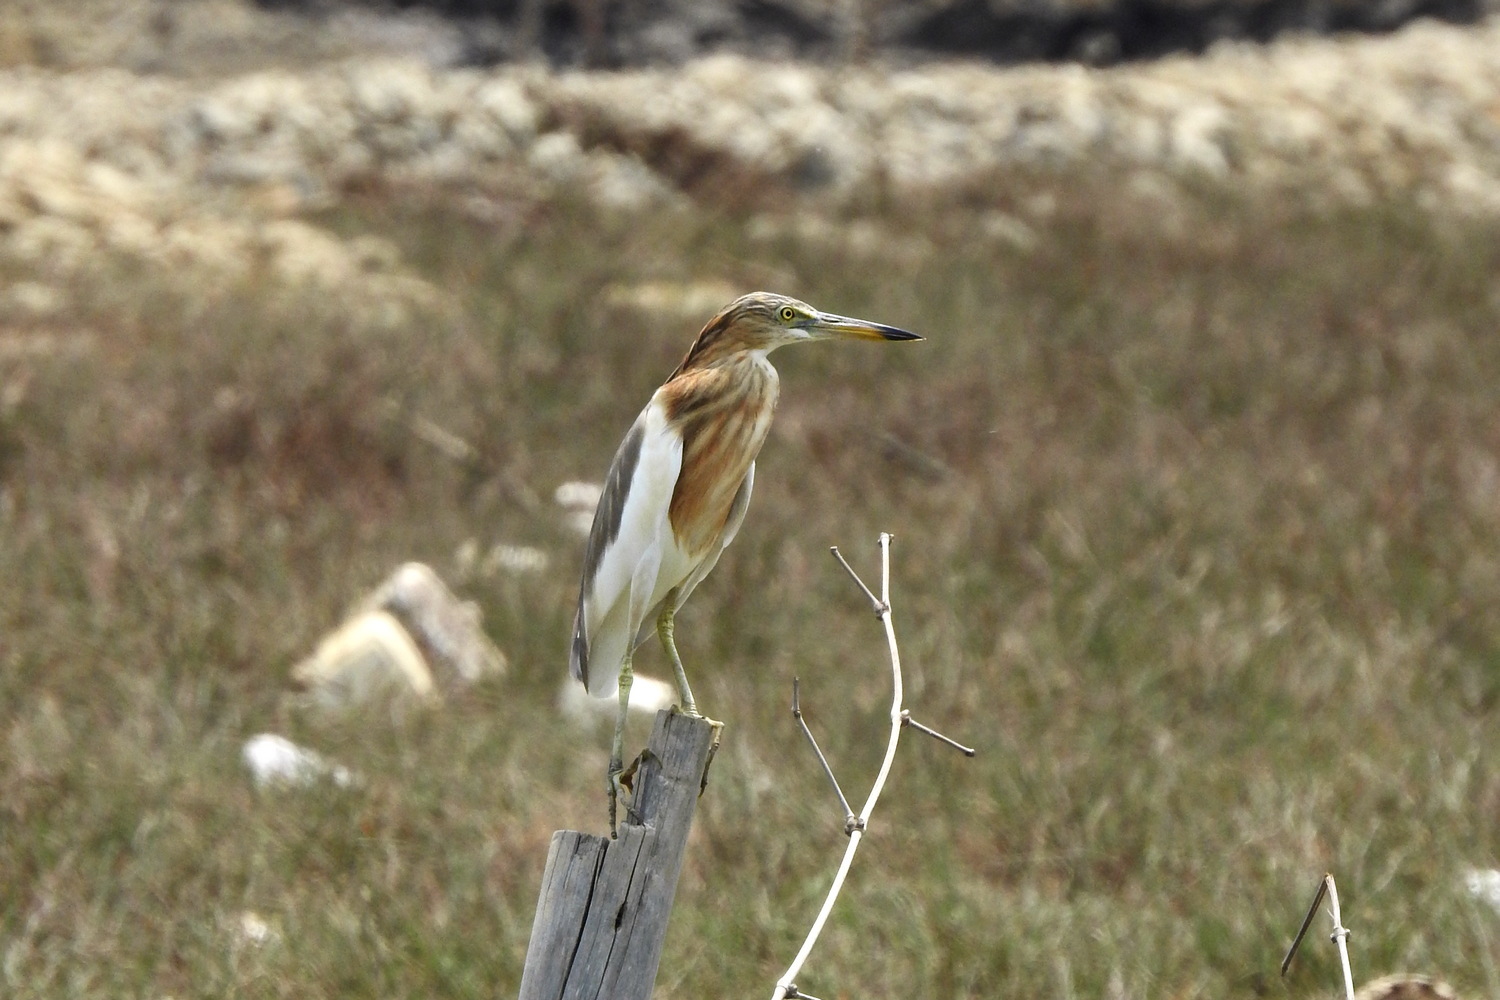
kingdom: Animalia
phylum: Chordata
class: Aves
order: Pelecaniformes
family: Ardeidae
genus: Ardeola
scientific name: Ardeola speciosa
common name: Javan pond heron
